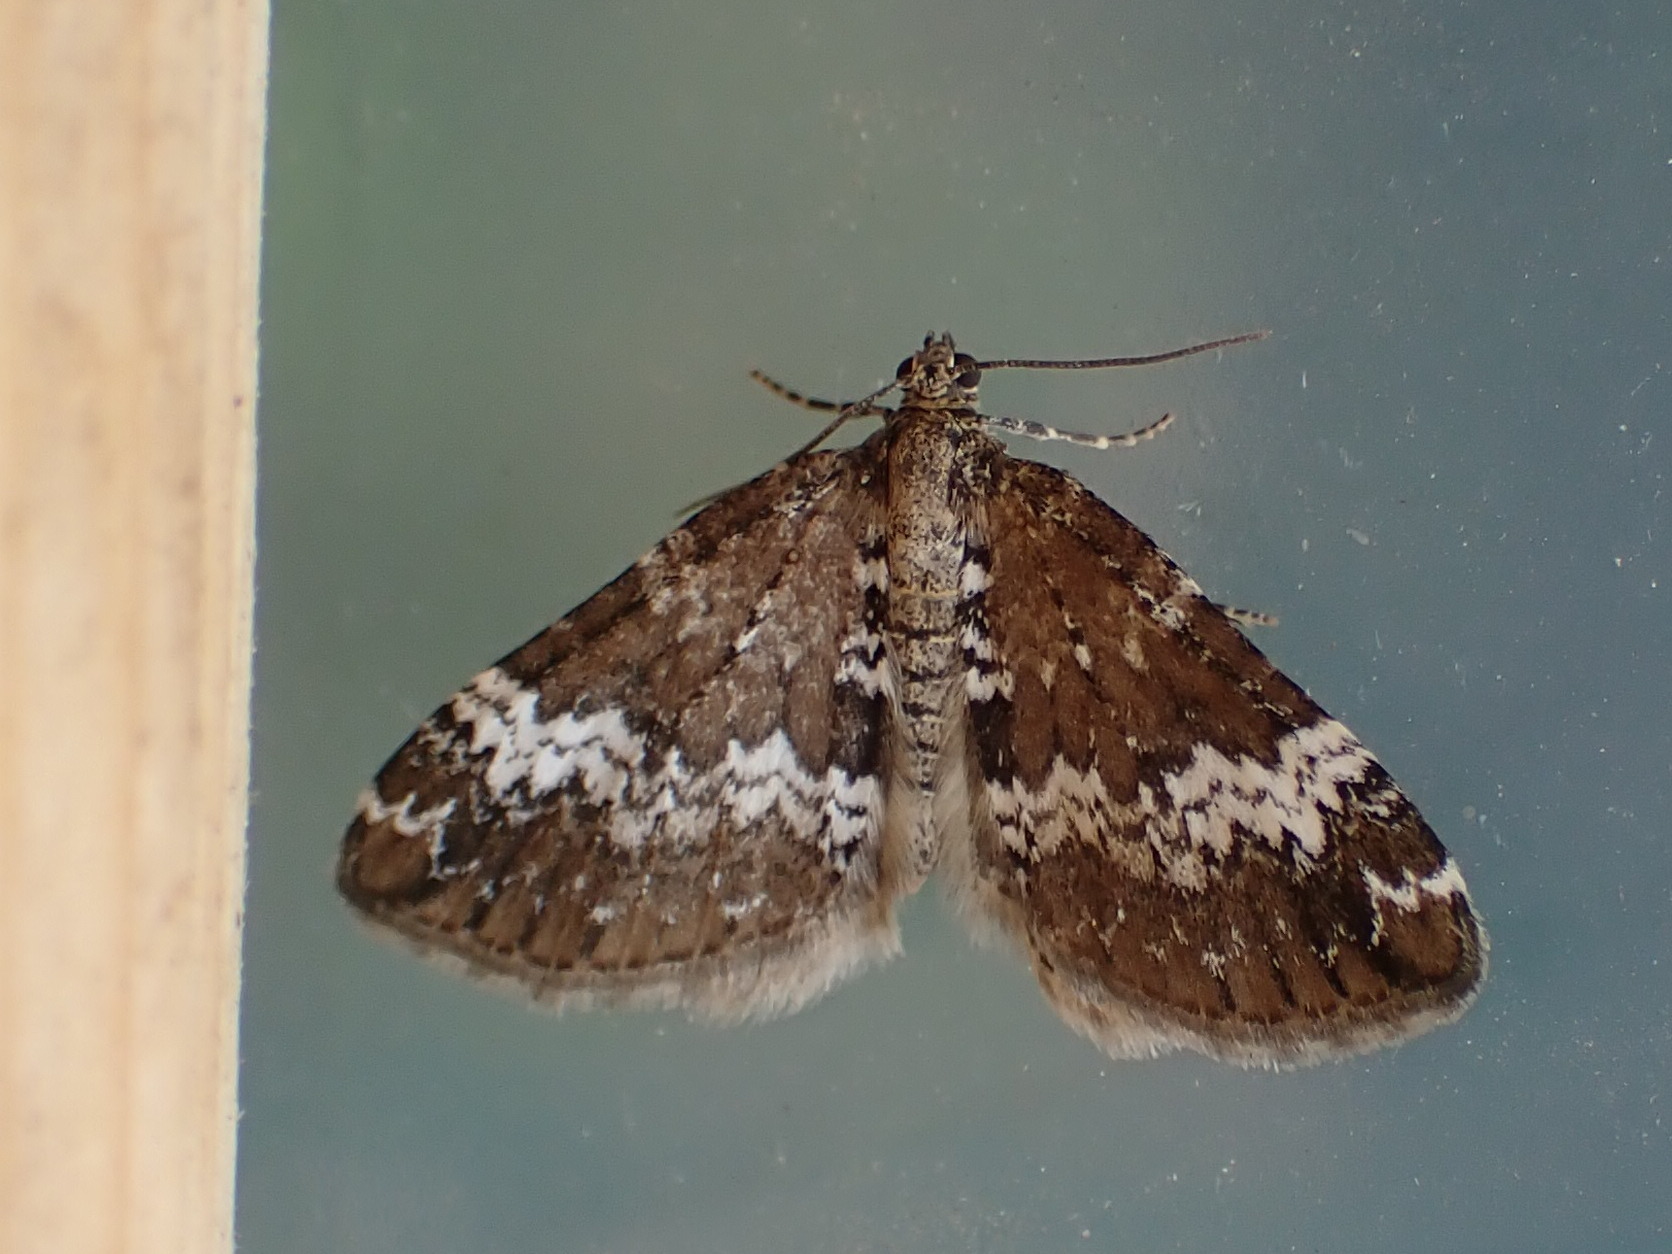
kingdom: Animalia
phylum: Arthropoda
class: Insecta
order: Lepidoptera
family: Geometridae
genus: Perizoma
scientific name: Perizoma alchemillata
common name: Small rivulet
